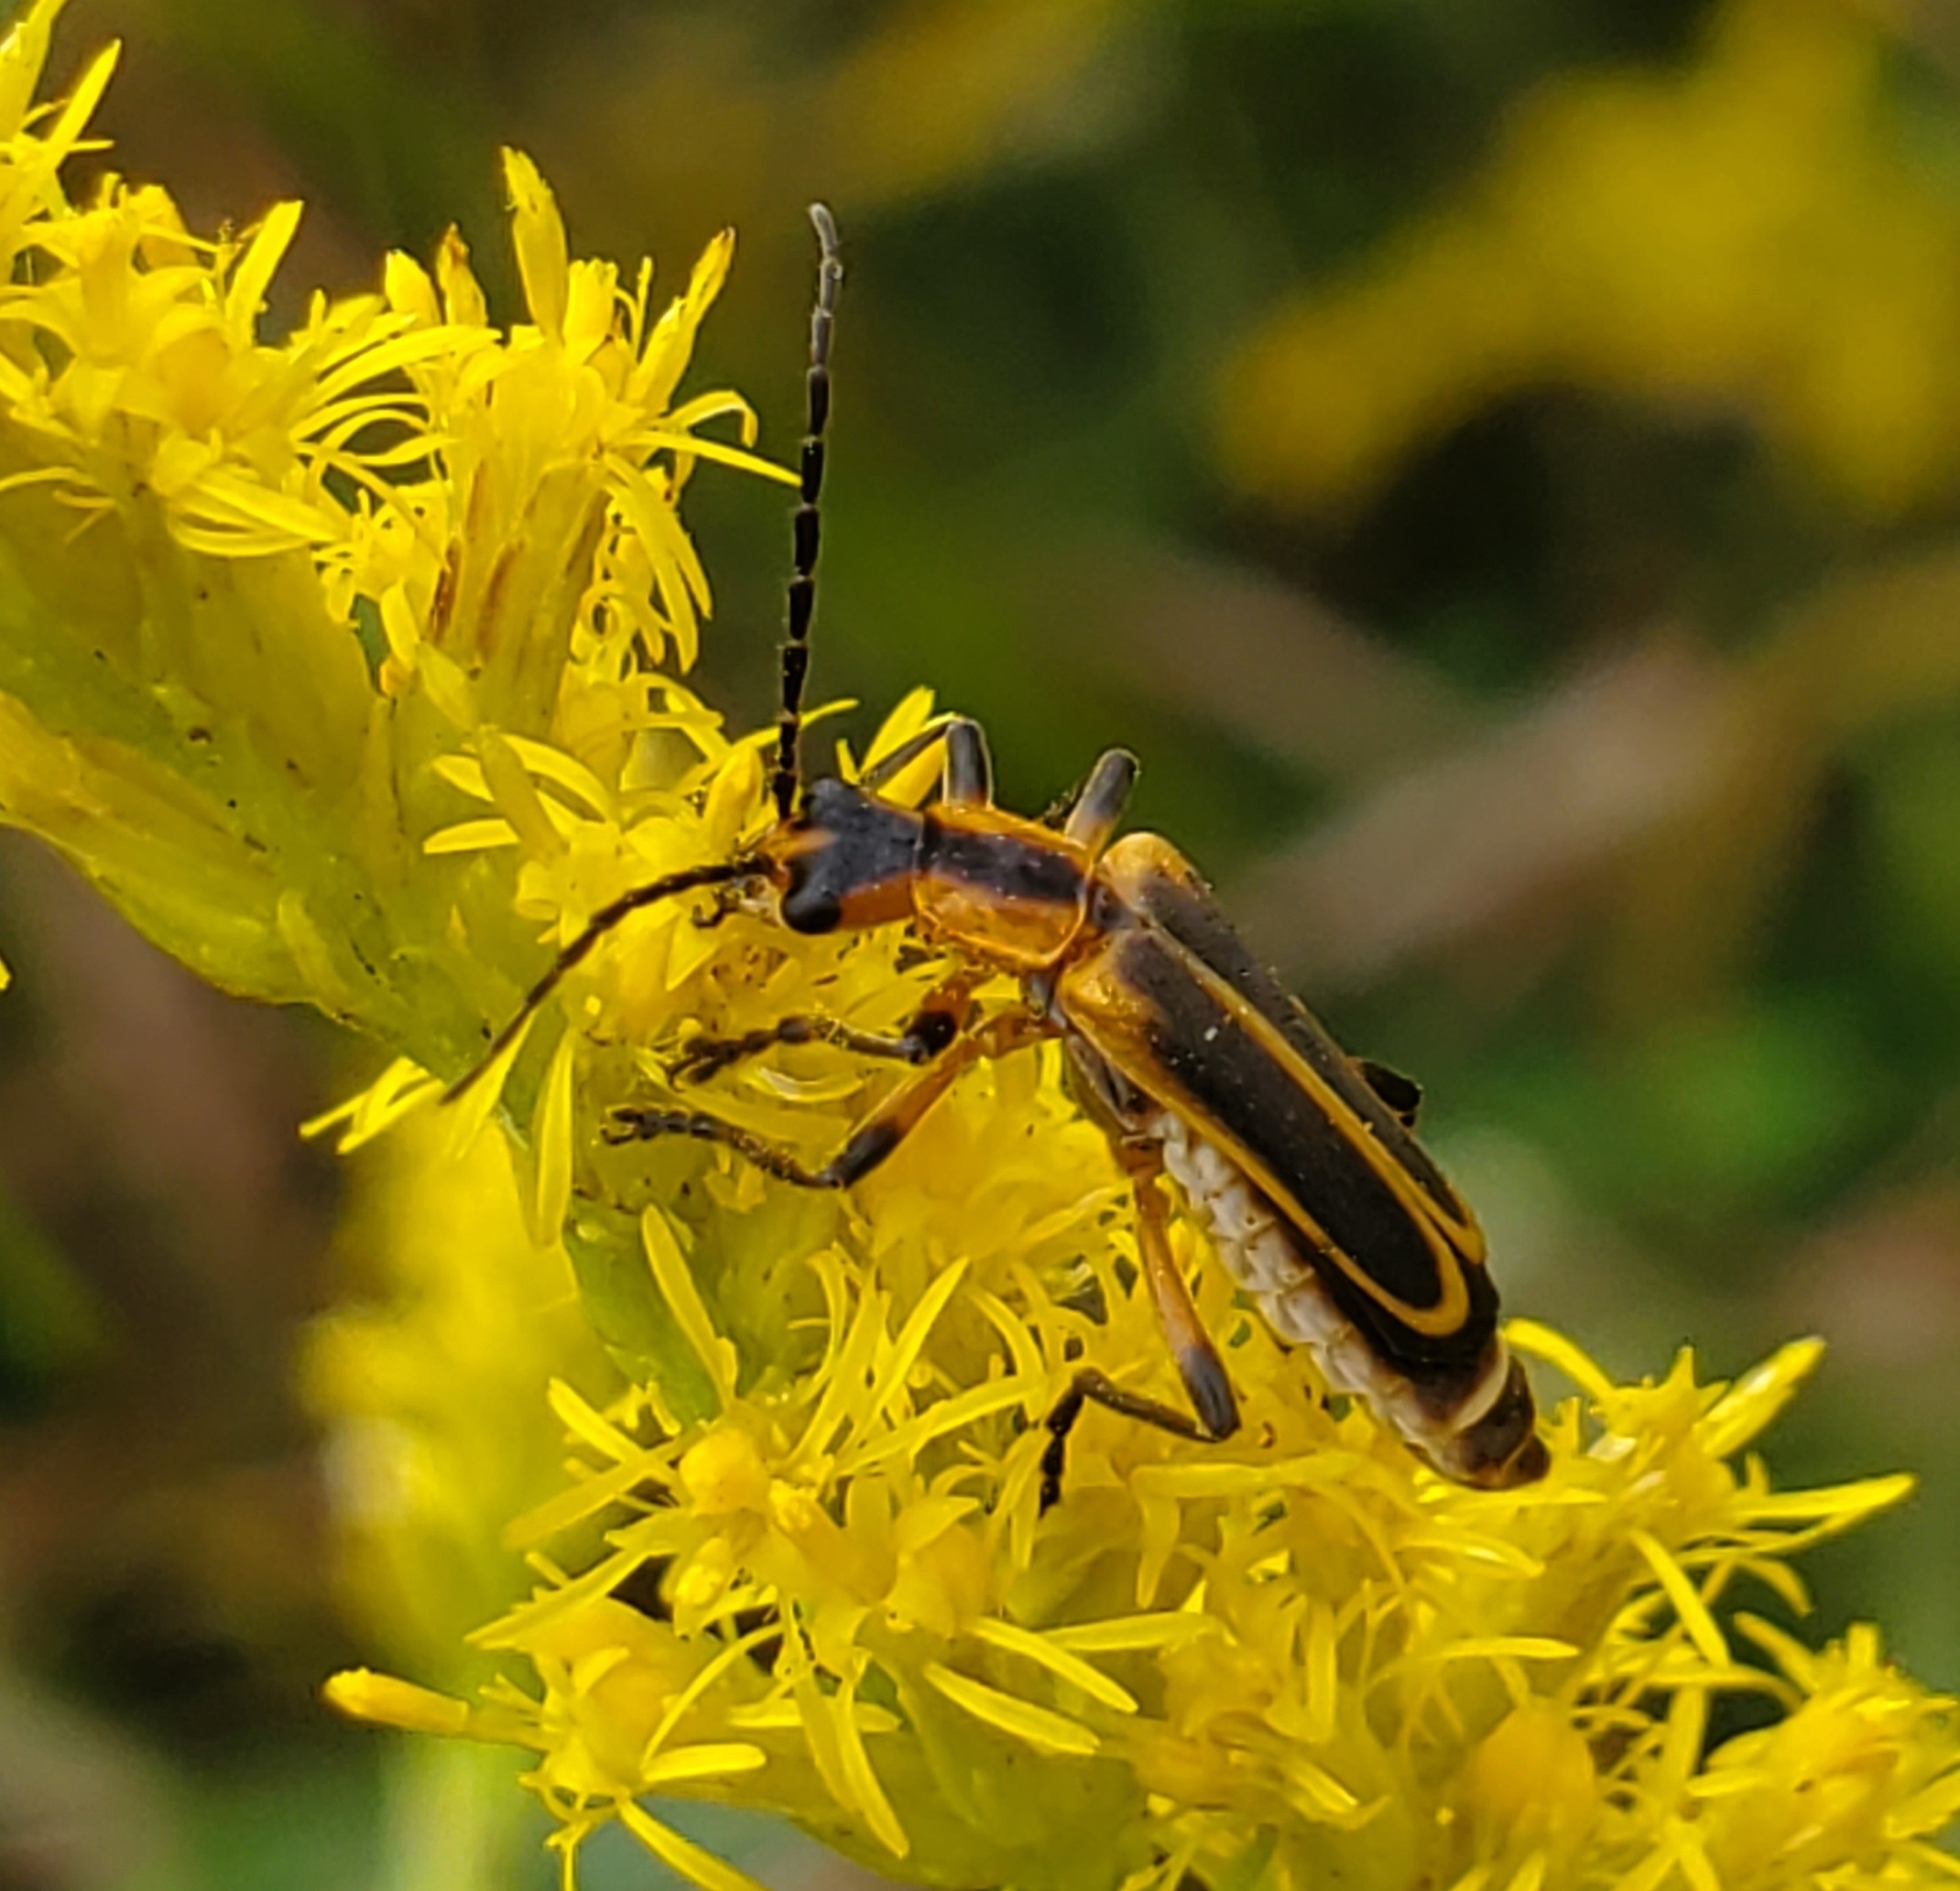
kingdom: Animalia
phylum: Arthropoda
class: Insecta
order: Coleoptera
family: Cantharidae
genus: Chauliognathus
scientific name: Chauliognathus marginatus
